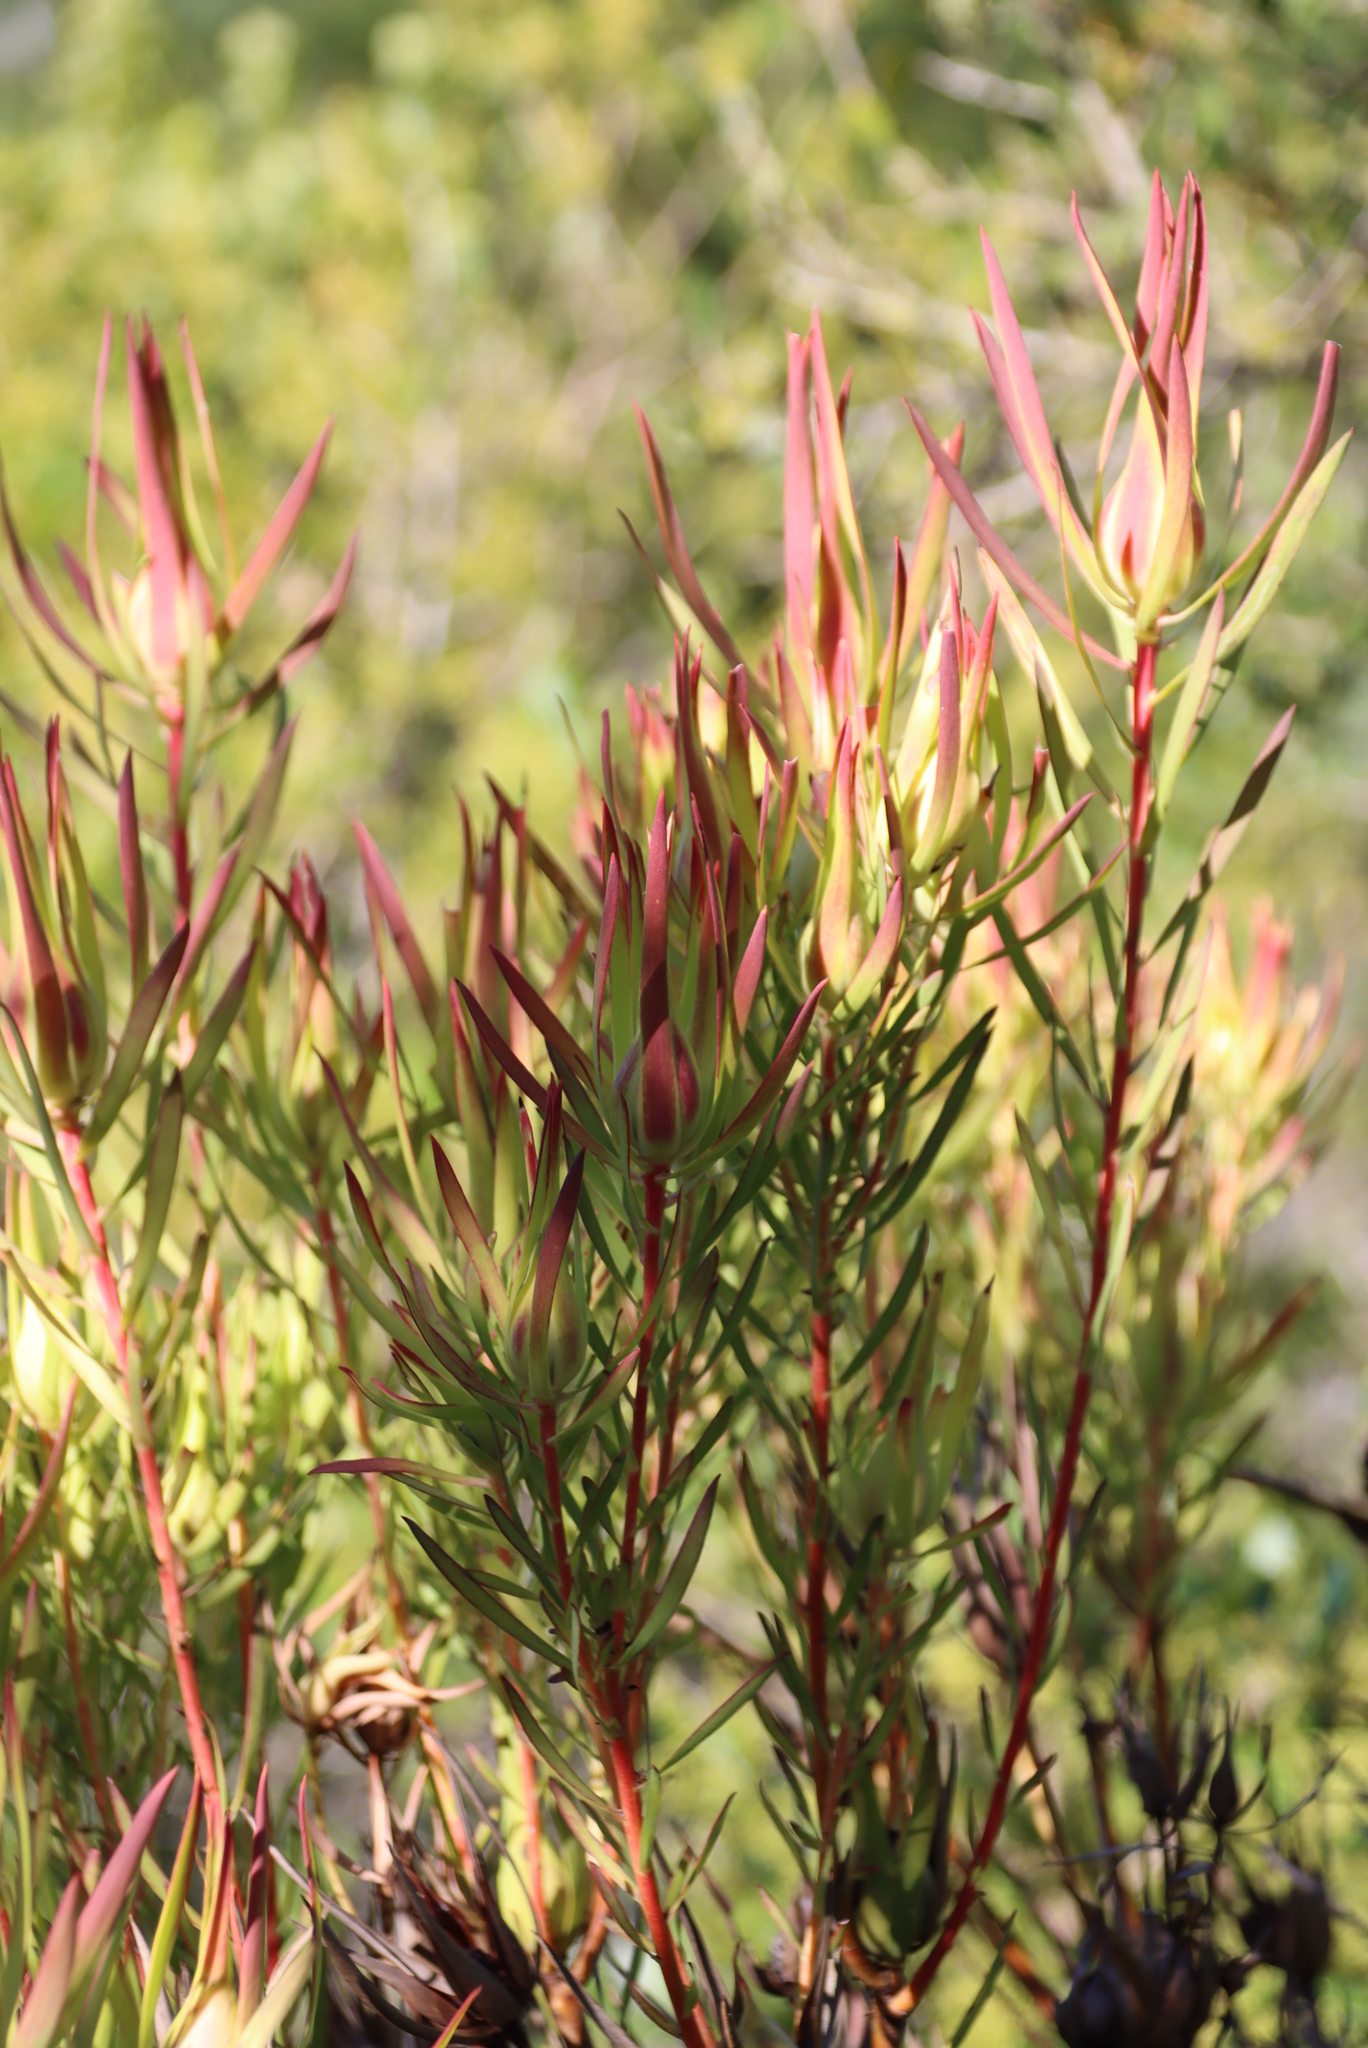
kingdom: Plantae
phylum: Tracheophyta
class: Magnoliopsida
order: Proteales
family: Proteaceae
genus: Leucadendron
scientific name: Leucadendron salignum
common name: Common sunshine conebush
